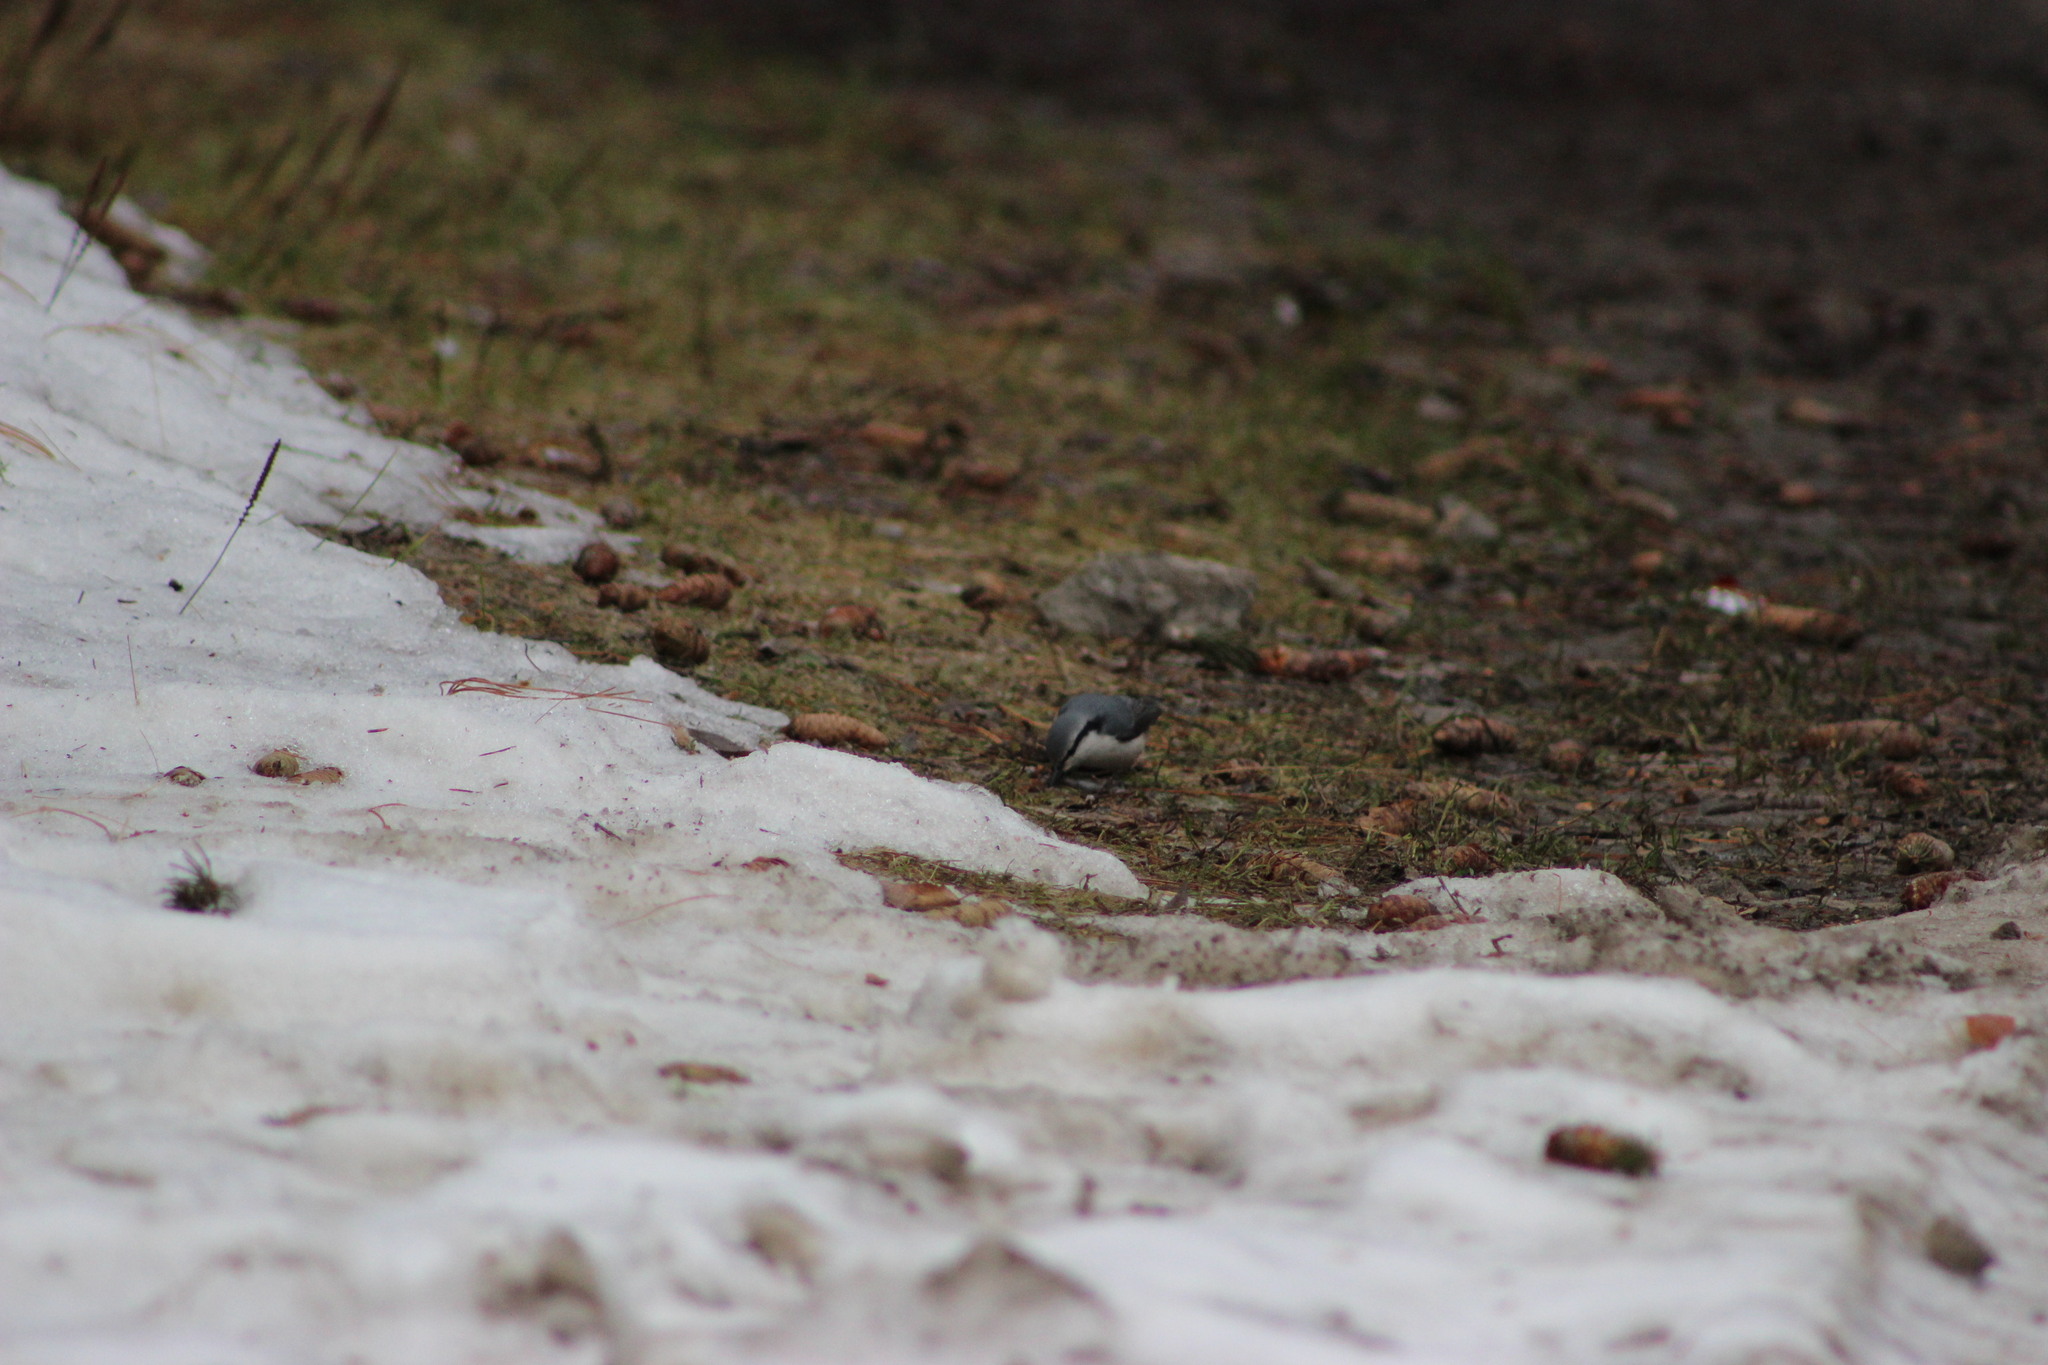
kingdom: Animalia
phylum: Chordata
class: Aves
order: Passeriformes
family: Sittidae
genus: Sitta
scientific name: Sitta europaea
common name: Eurasian nuthatch
